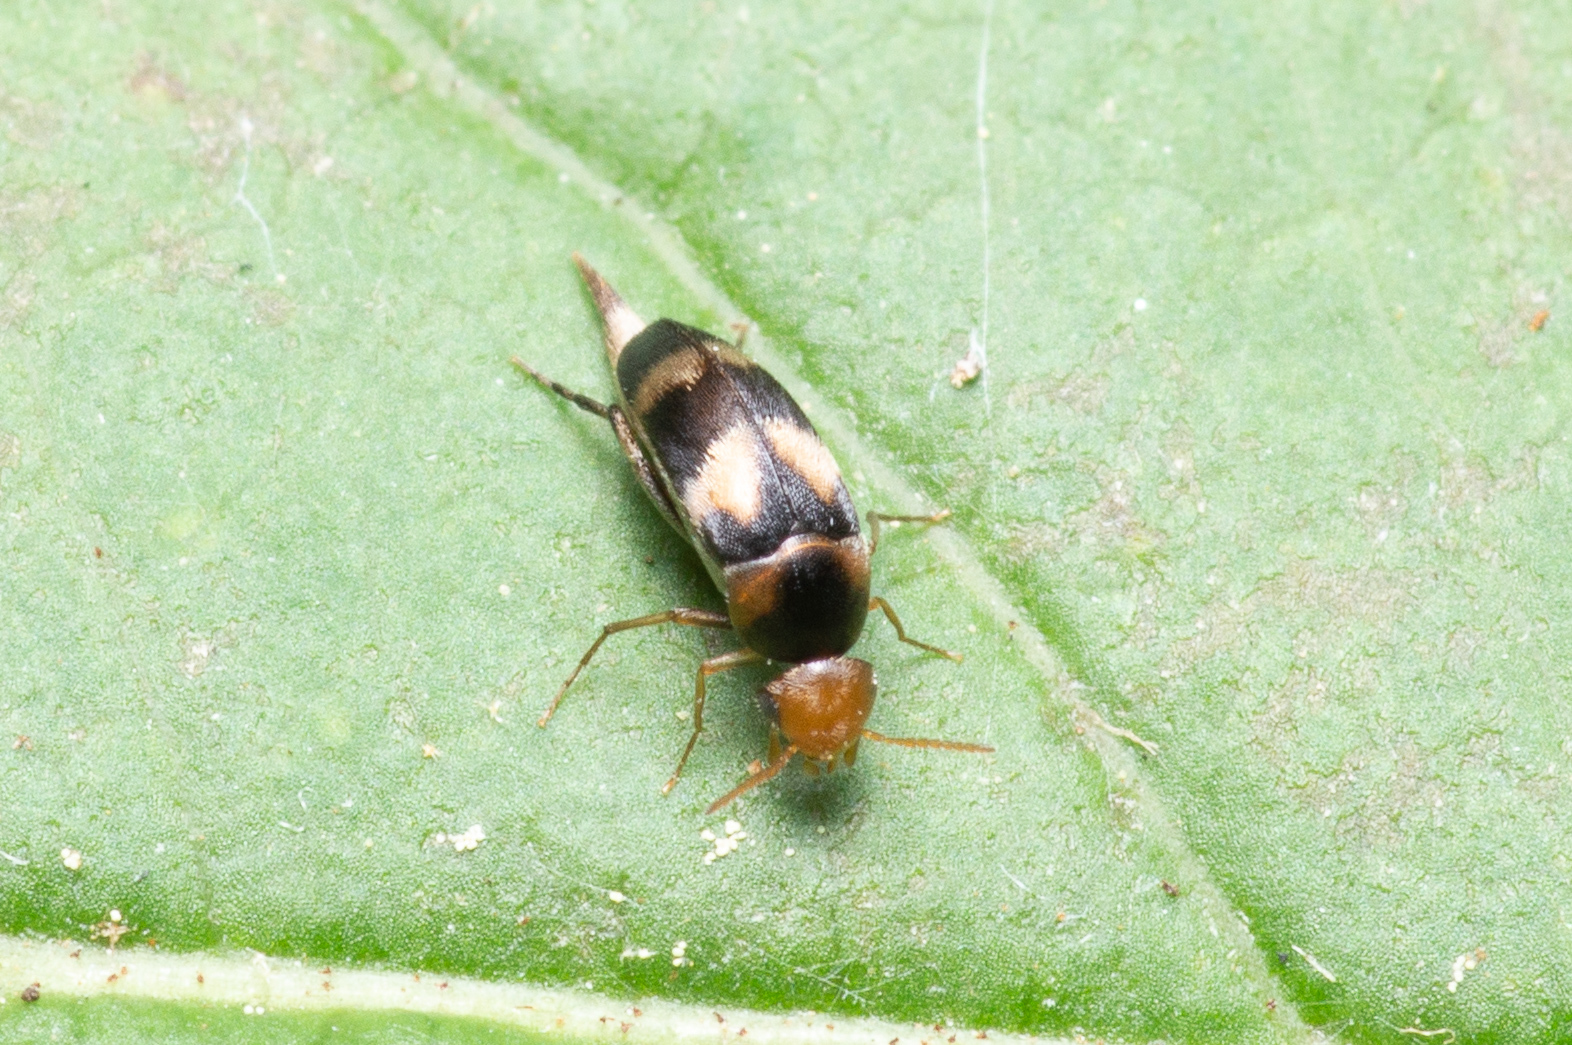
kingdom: Animalia
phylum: Arthropoda
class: Insecta
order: Coleoptera
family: Mordellidae
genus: Mordellistena
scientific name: Mordellistena trifasciata
